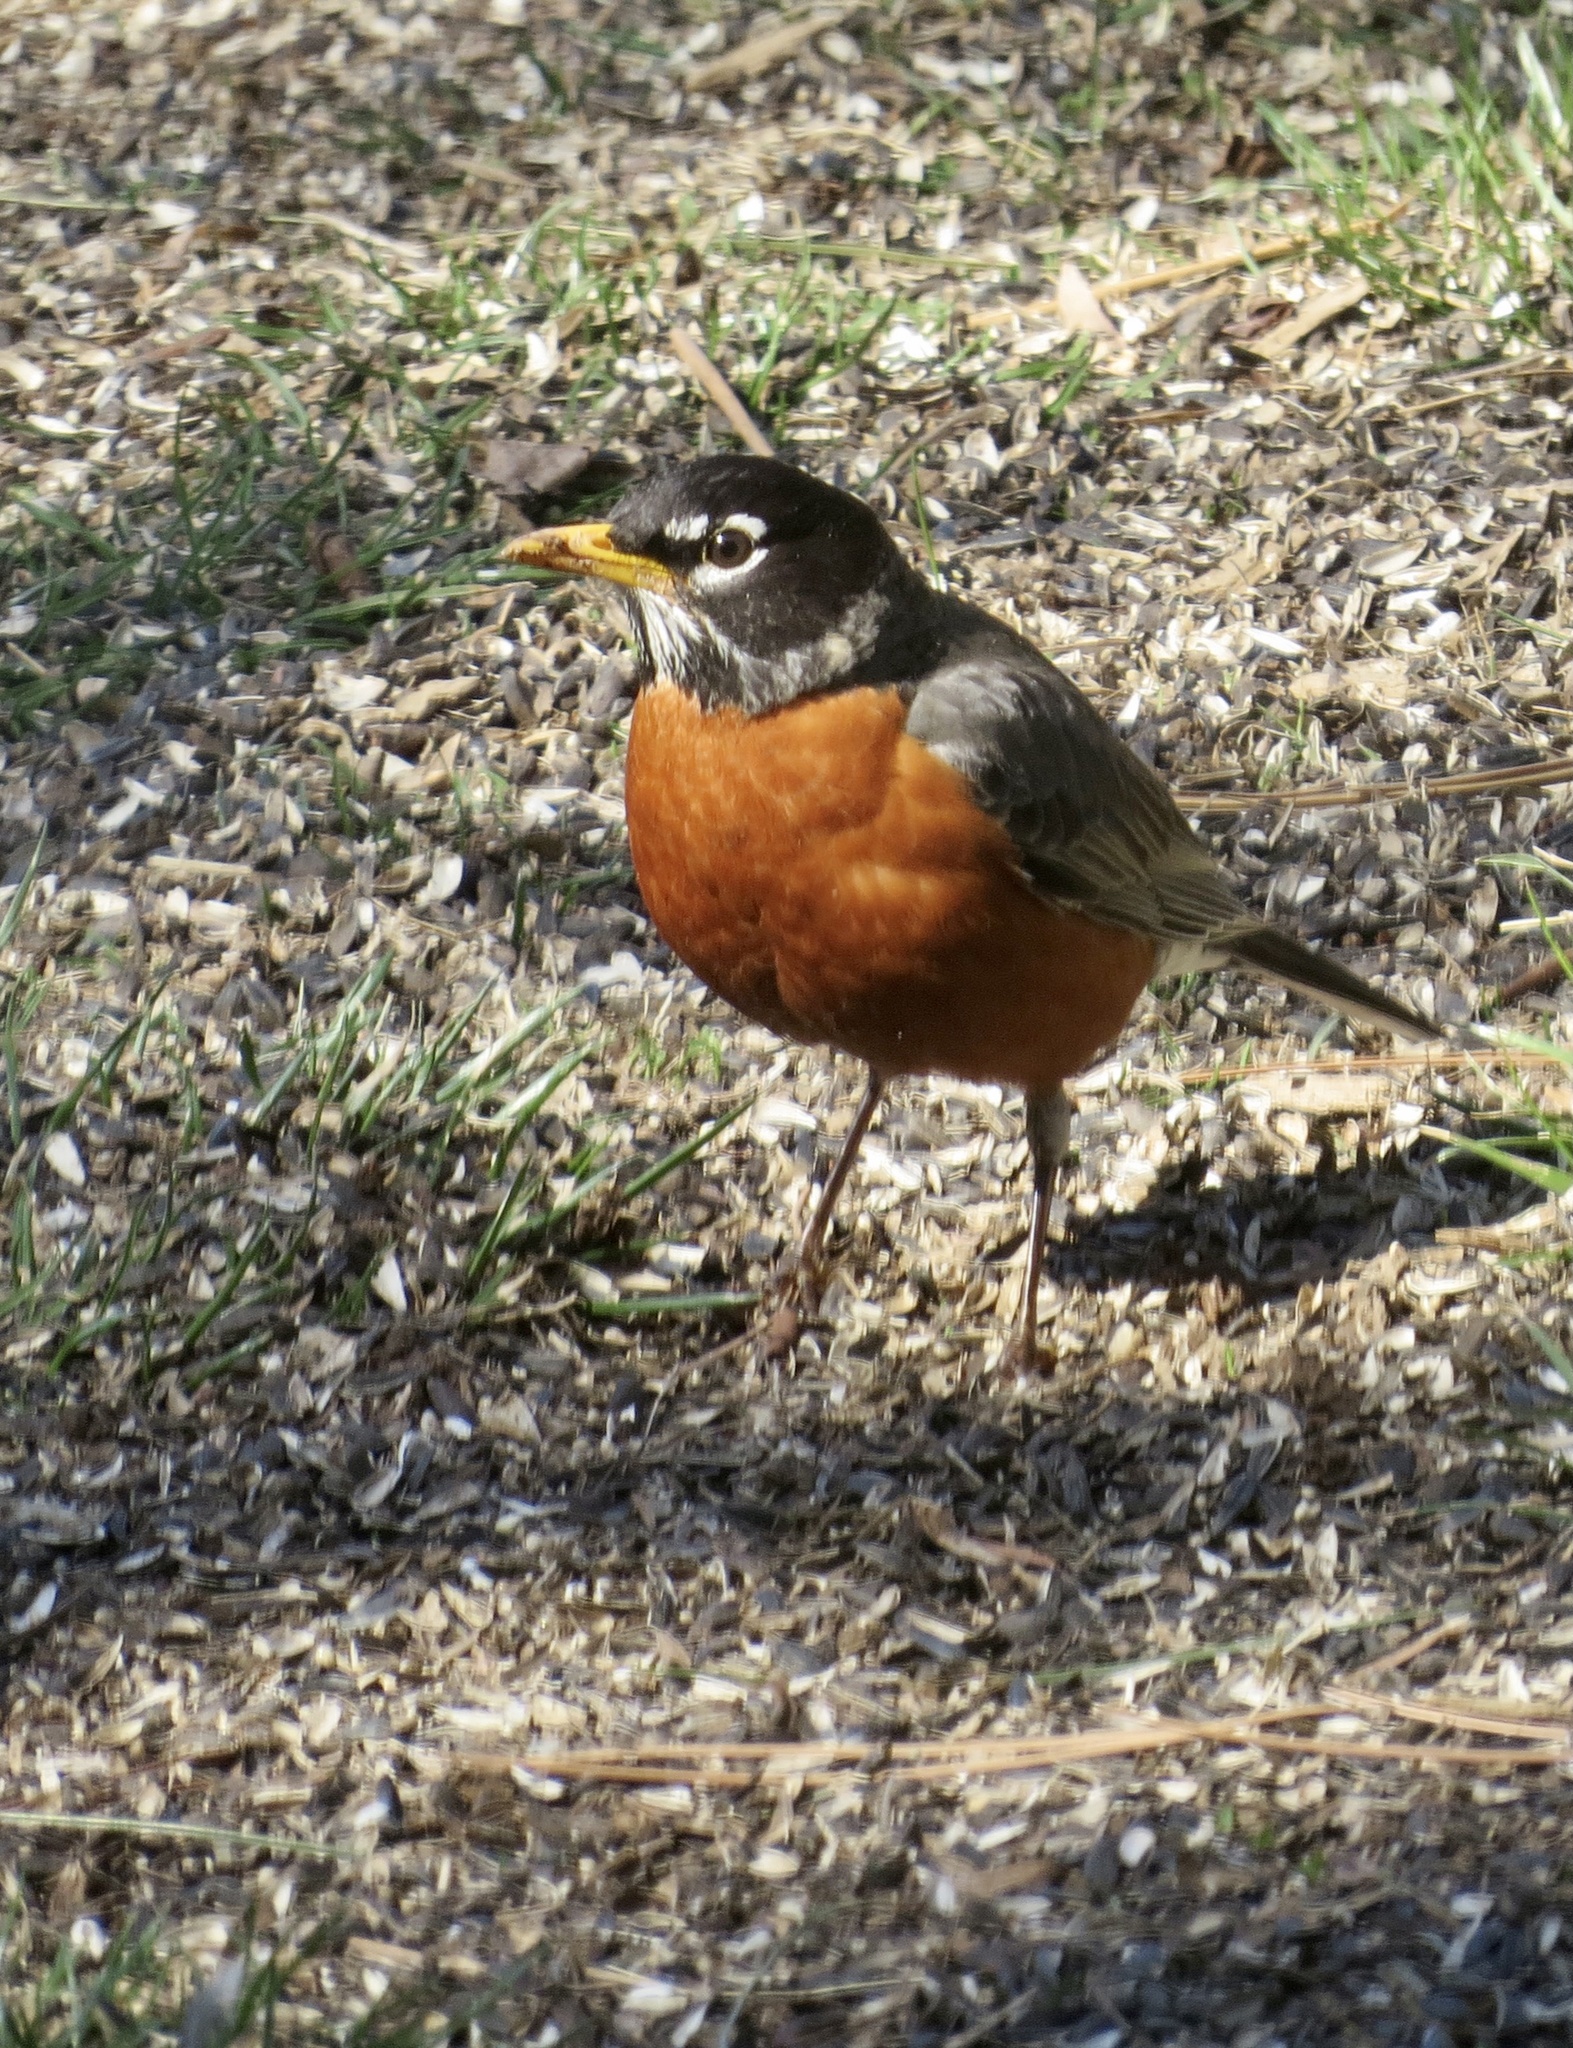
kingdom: Animalia
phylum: Chordata
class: Aves
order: Passeriformes
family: Turdidae
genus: Turdus
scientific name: Turdus migratorius
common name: American robin
